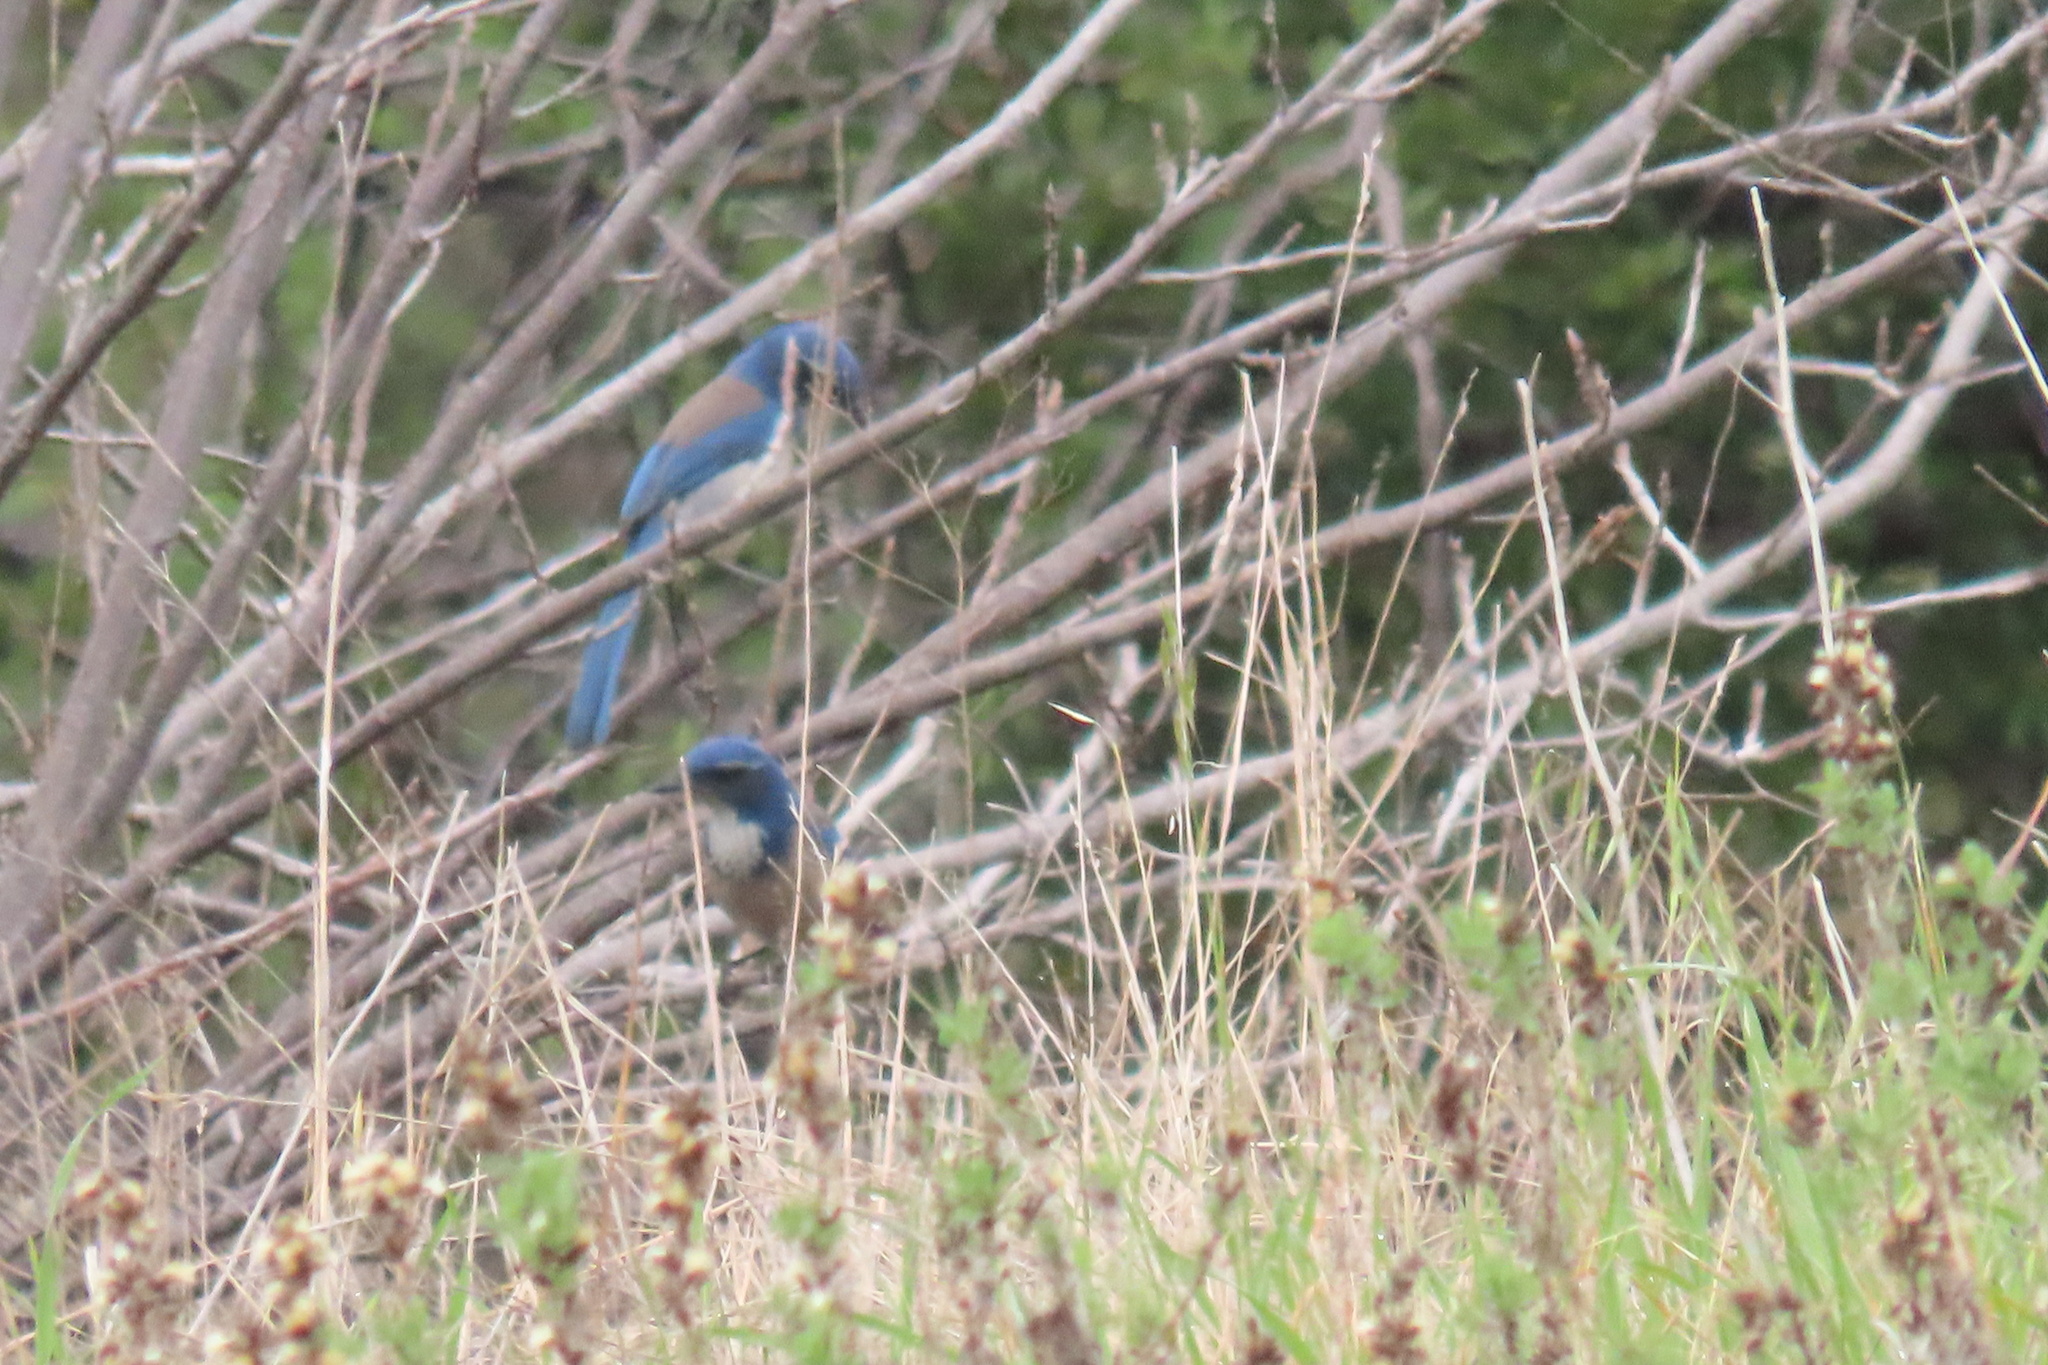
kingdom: Animalia
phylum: Chordata
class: Aves
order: Passeriformes
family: Corvidae
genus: Aphelocoma
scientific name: Aphelocoma californica
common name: California scrub-jay
